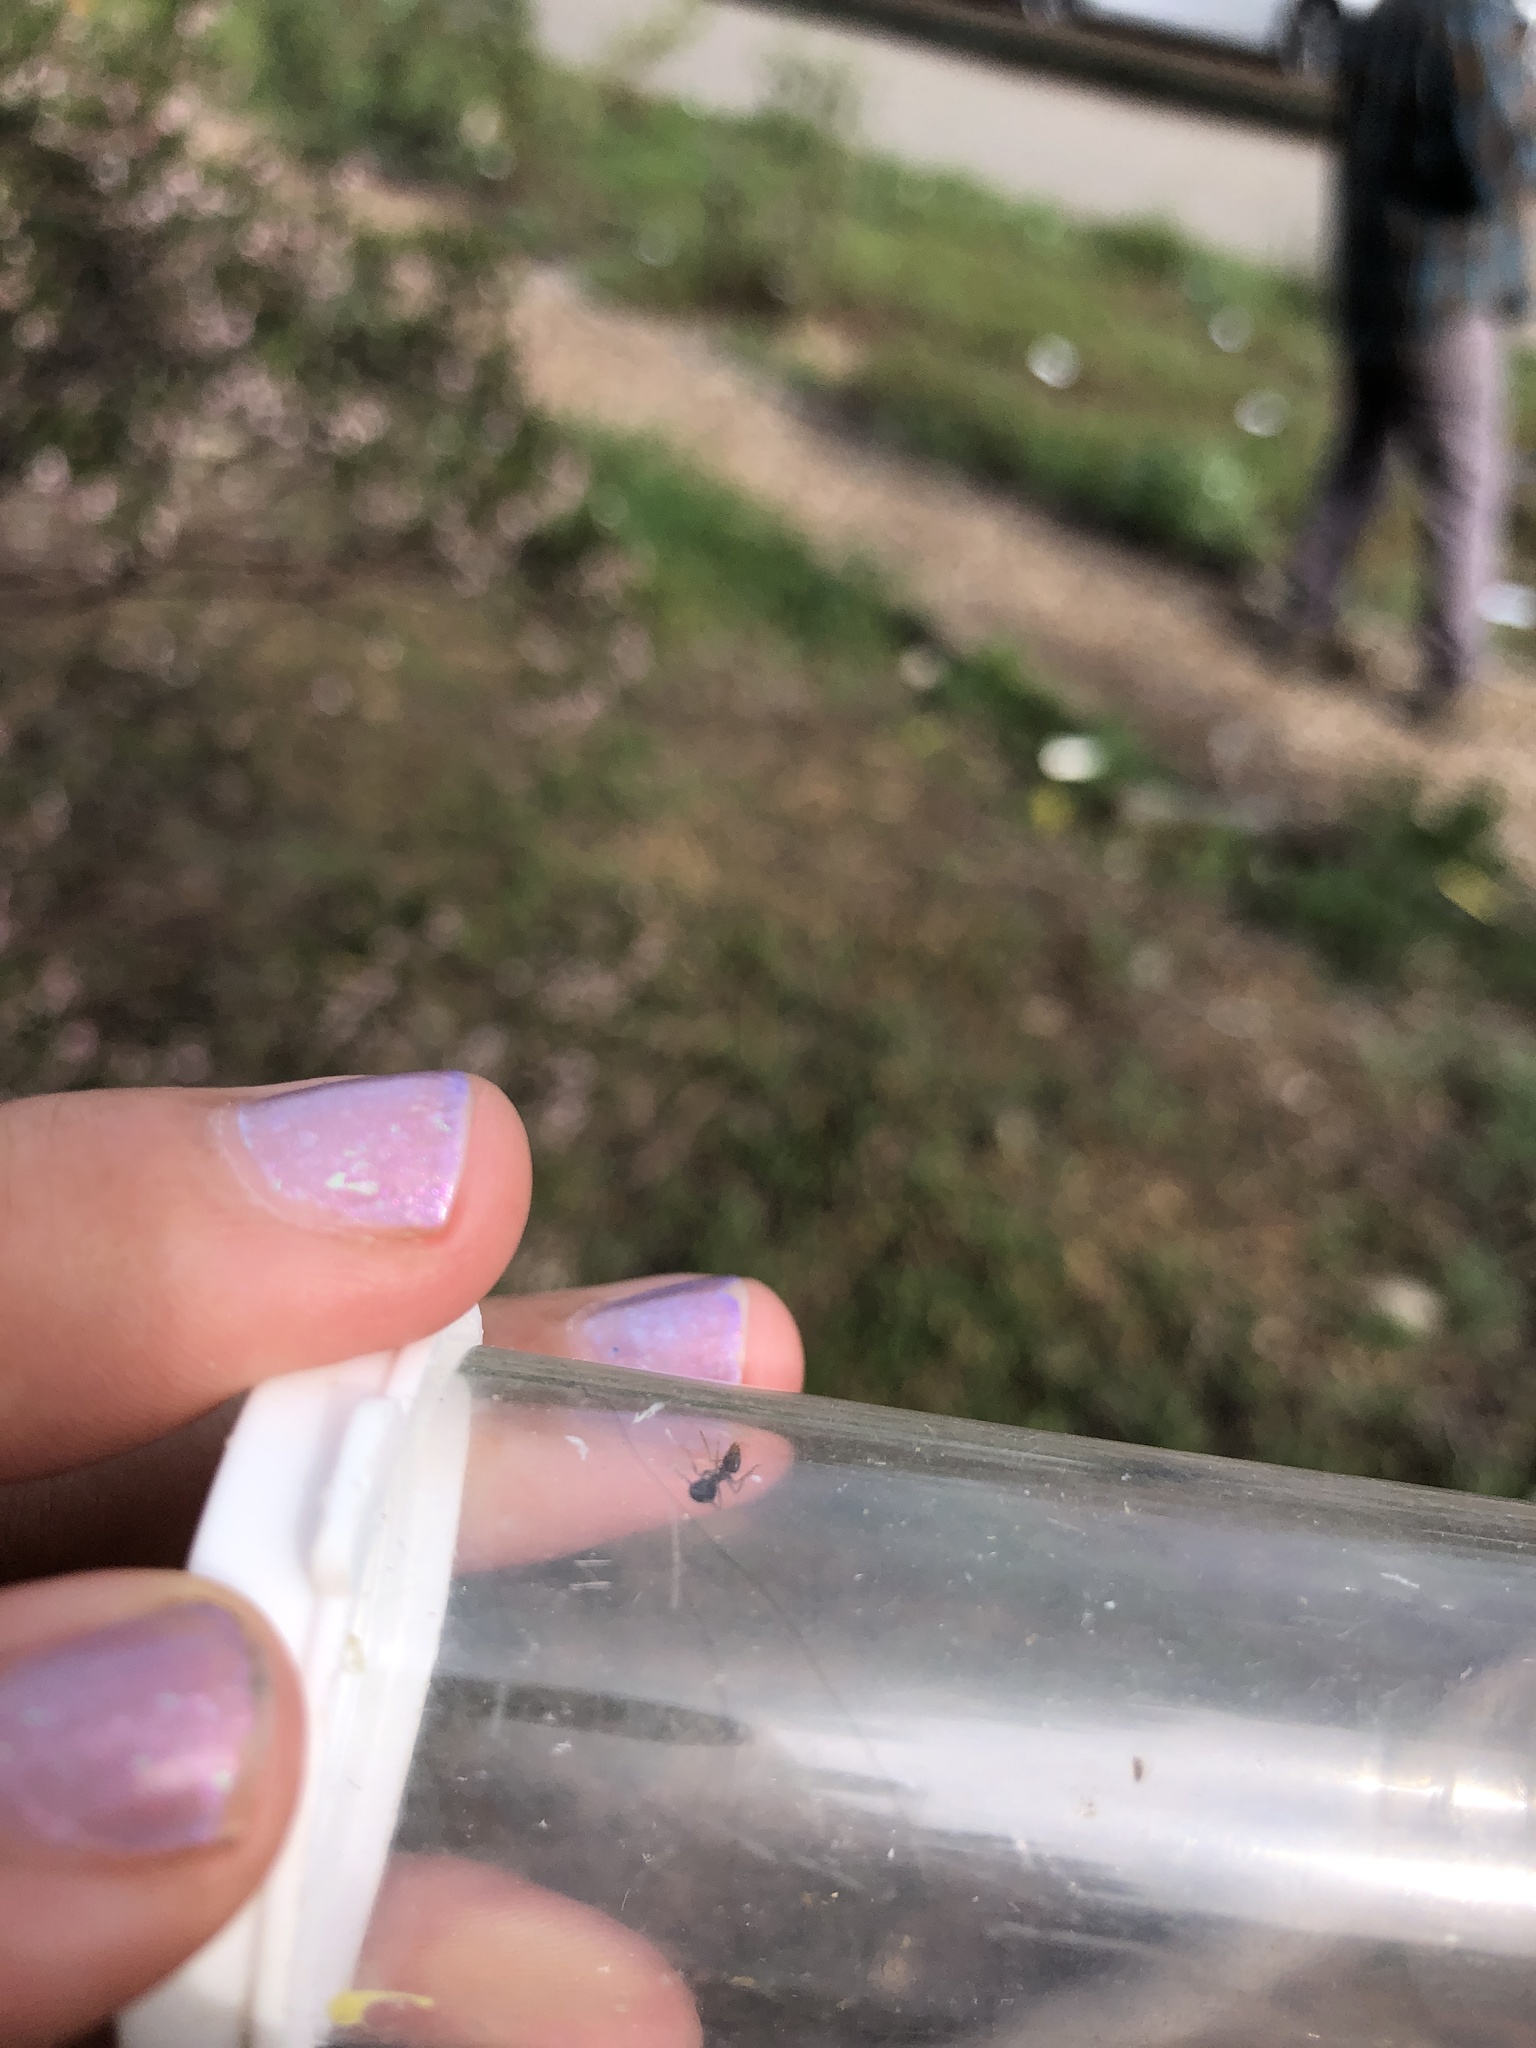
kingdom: Animalia
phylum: Arthropoda
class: Insecta
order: Hymenoptera
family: Formicidae
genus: Prenolepis
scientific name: Prenolepis imparis
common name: Small honey ant
